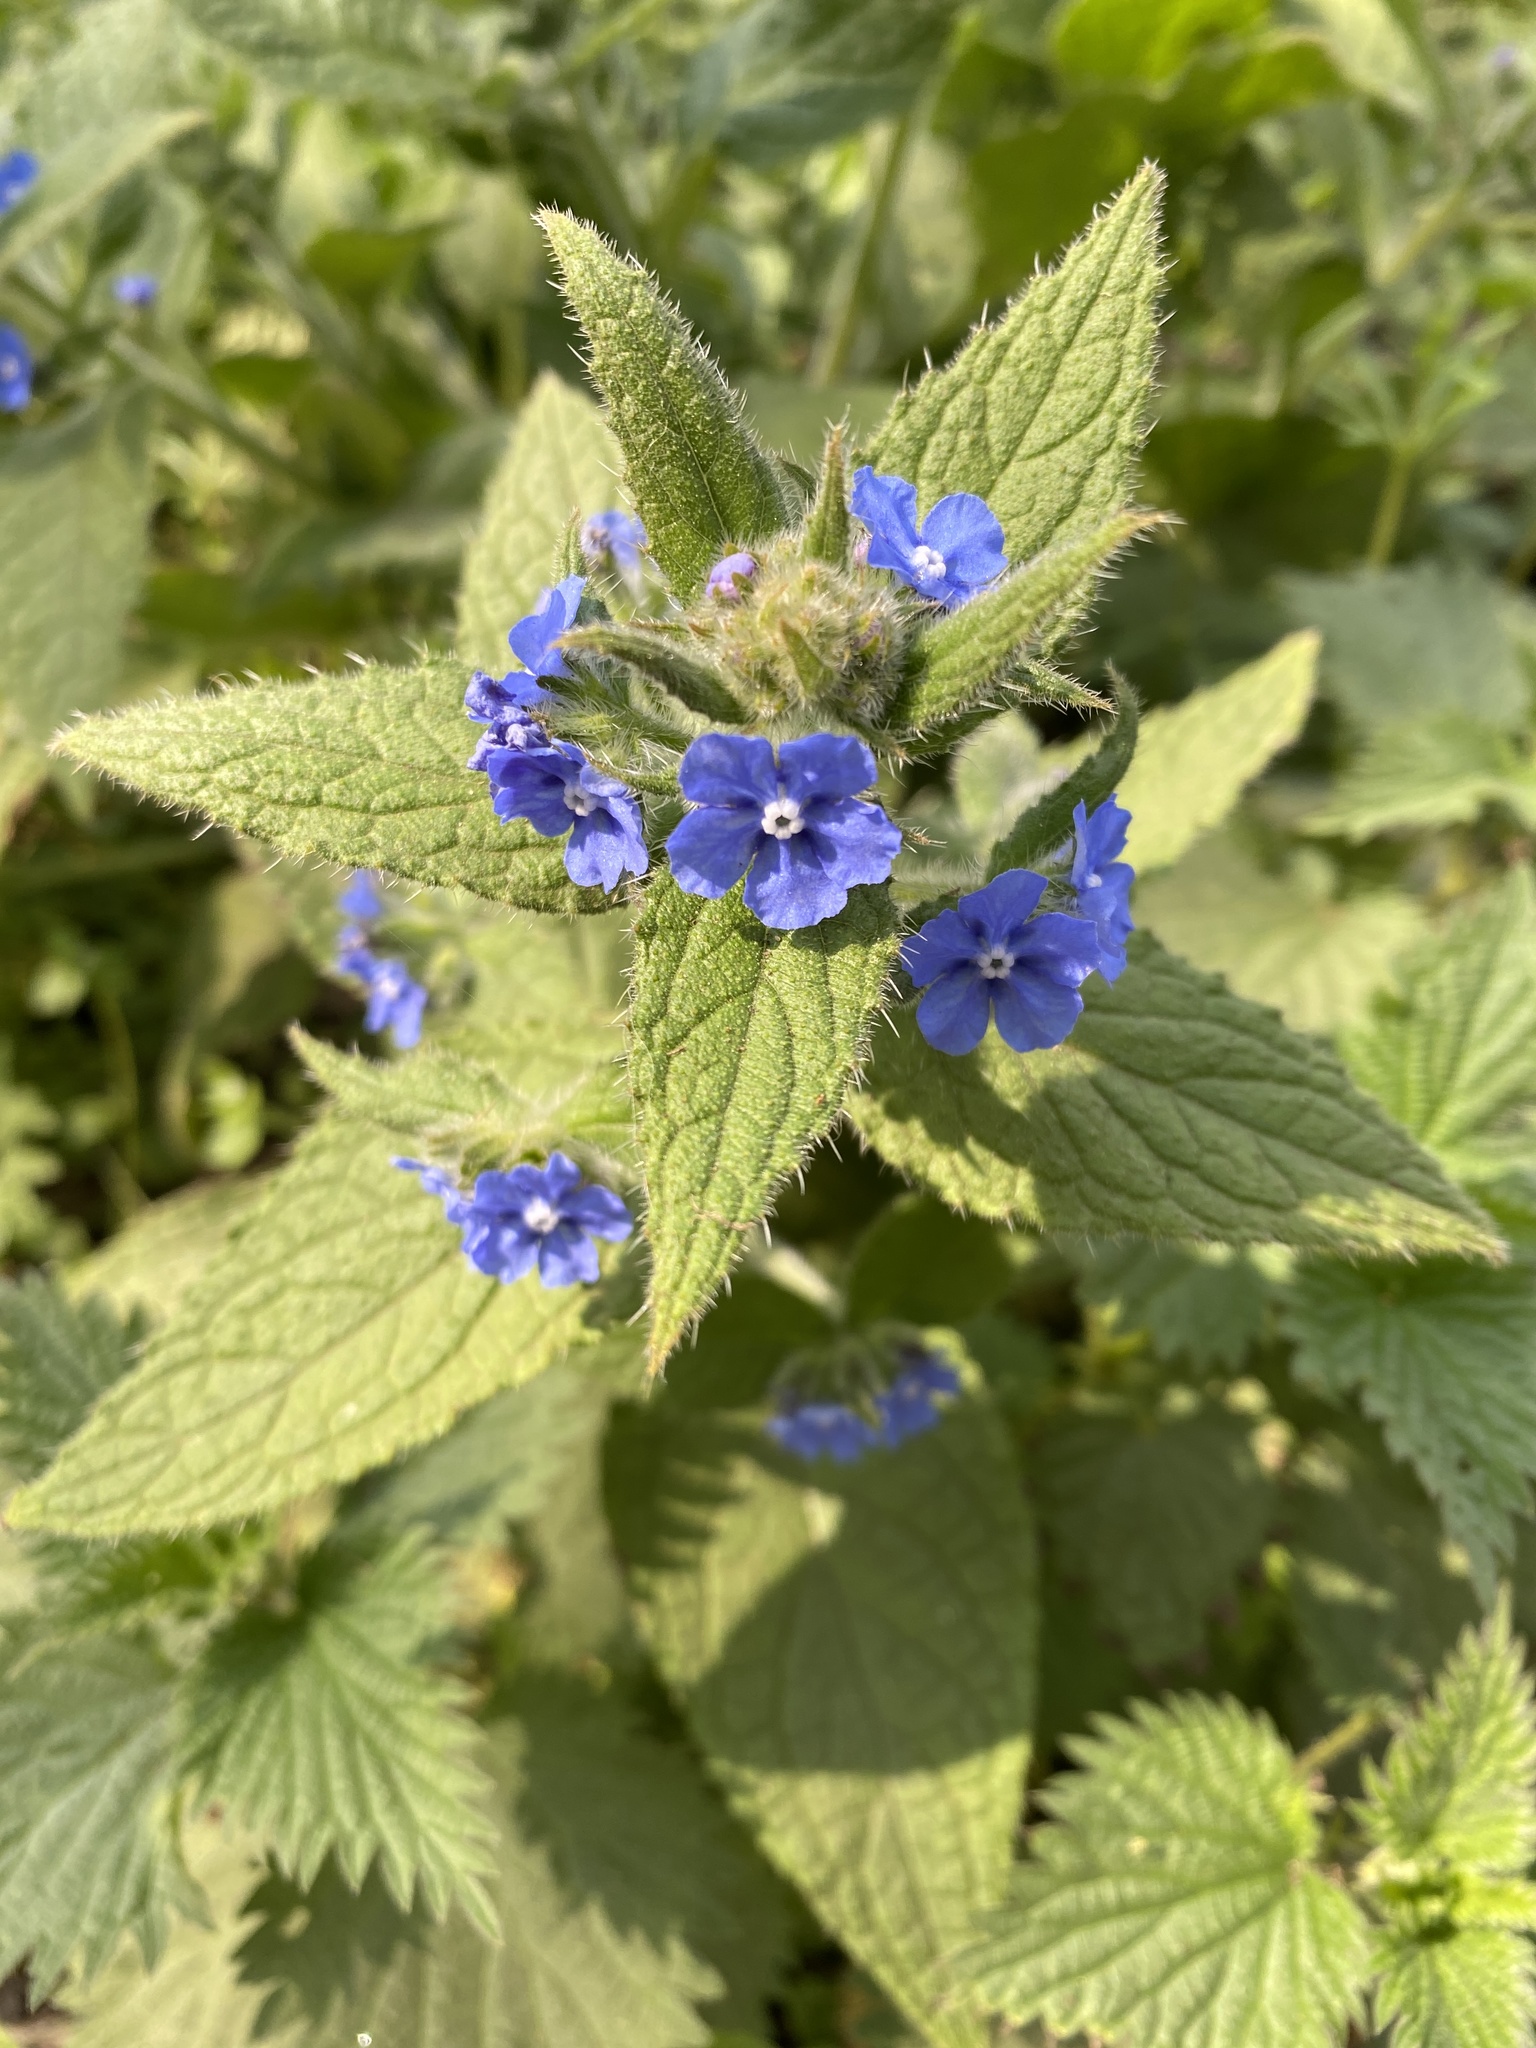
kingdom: Plantae
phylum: Tracheophyta
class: Magnoliopsida
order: Boraginales
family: Boraginaceae
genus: Pentaglottis
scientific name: Pentaglottis sempervirens
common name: Green alkanet
